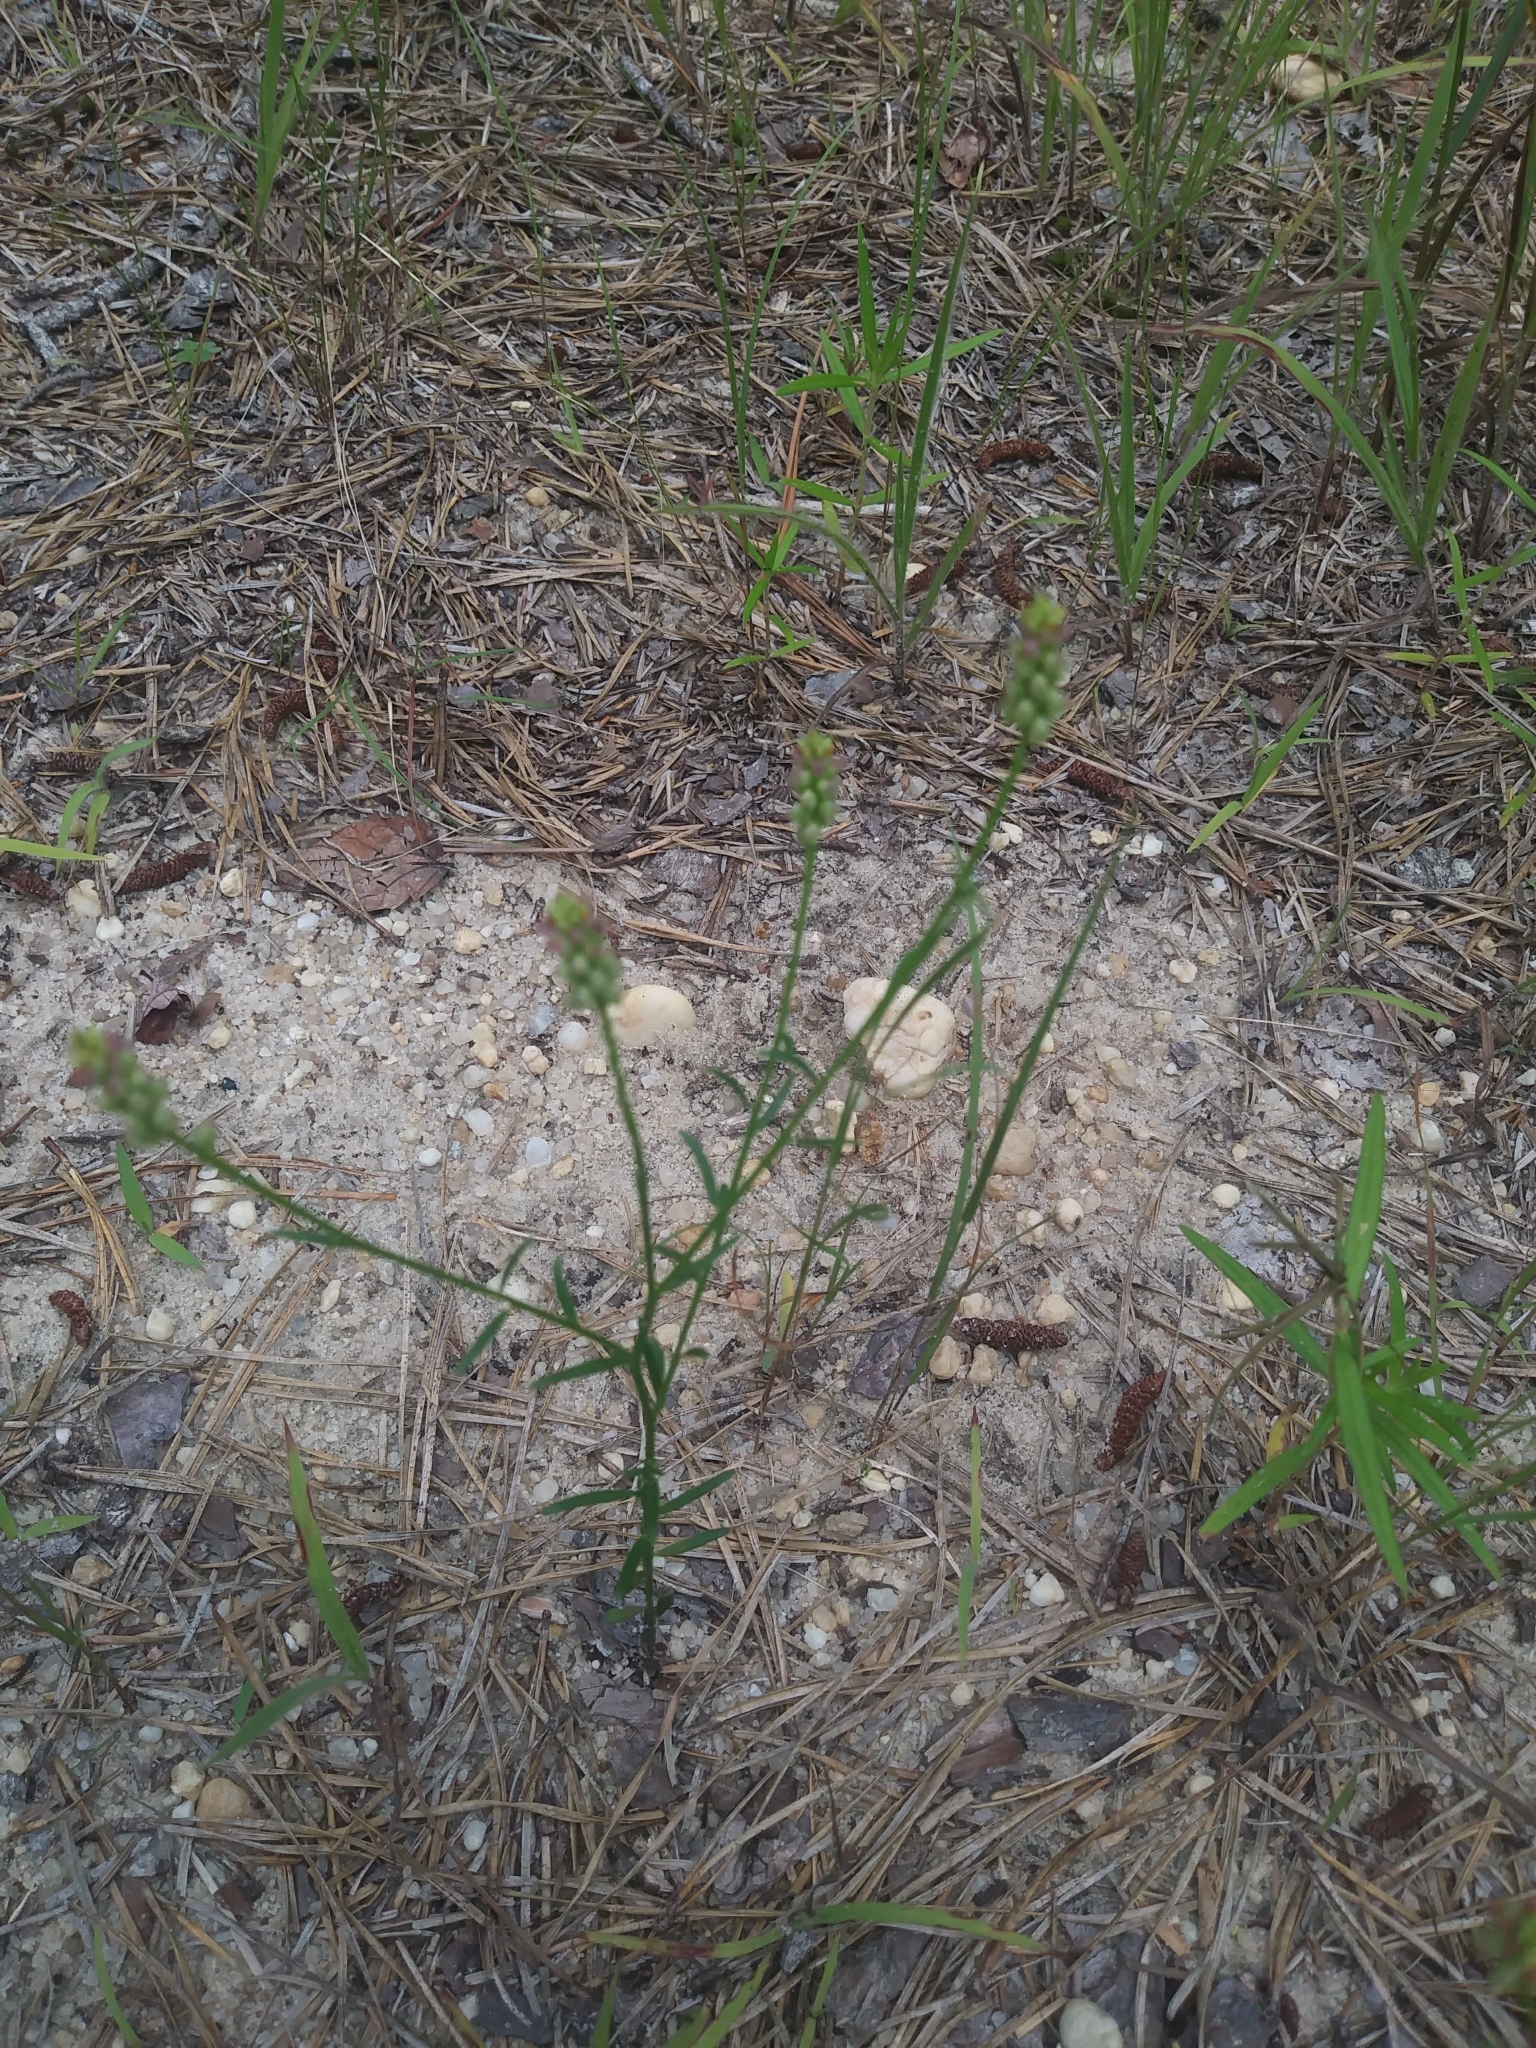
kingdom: Plantae
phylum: Tracheophyta
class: Magnoliopsida
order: Fabales
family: Polygalaceae
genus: Polygala
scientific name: Polygala nuttallii
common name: Nuttall's milkwort
